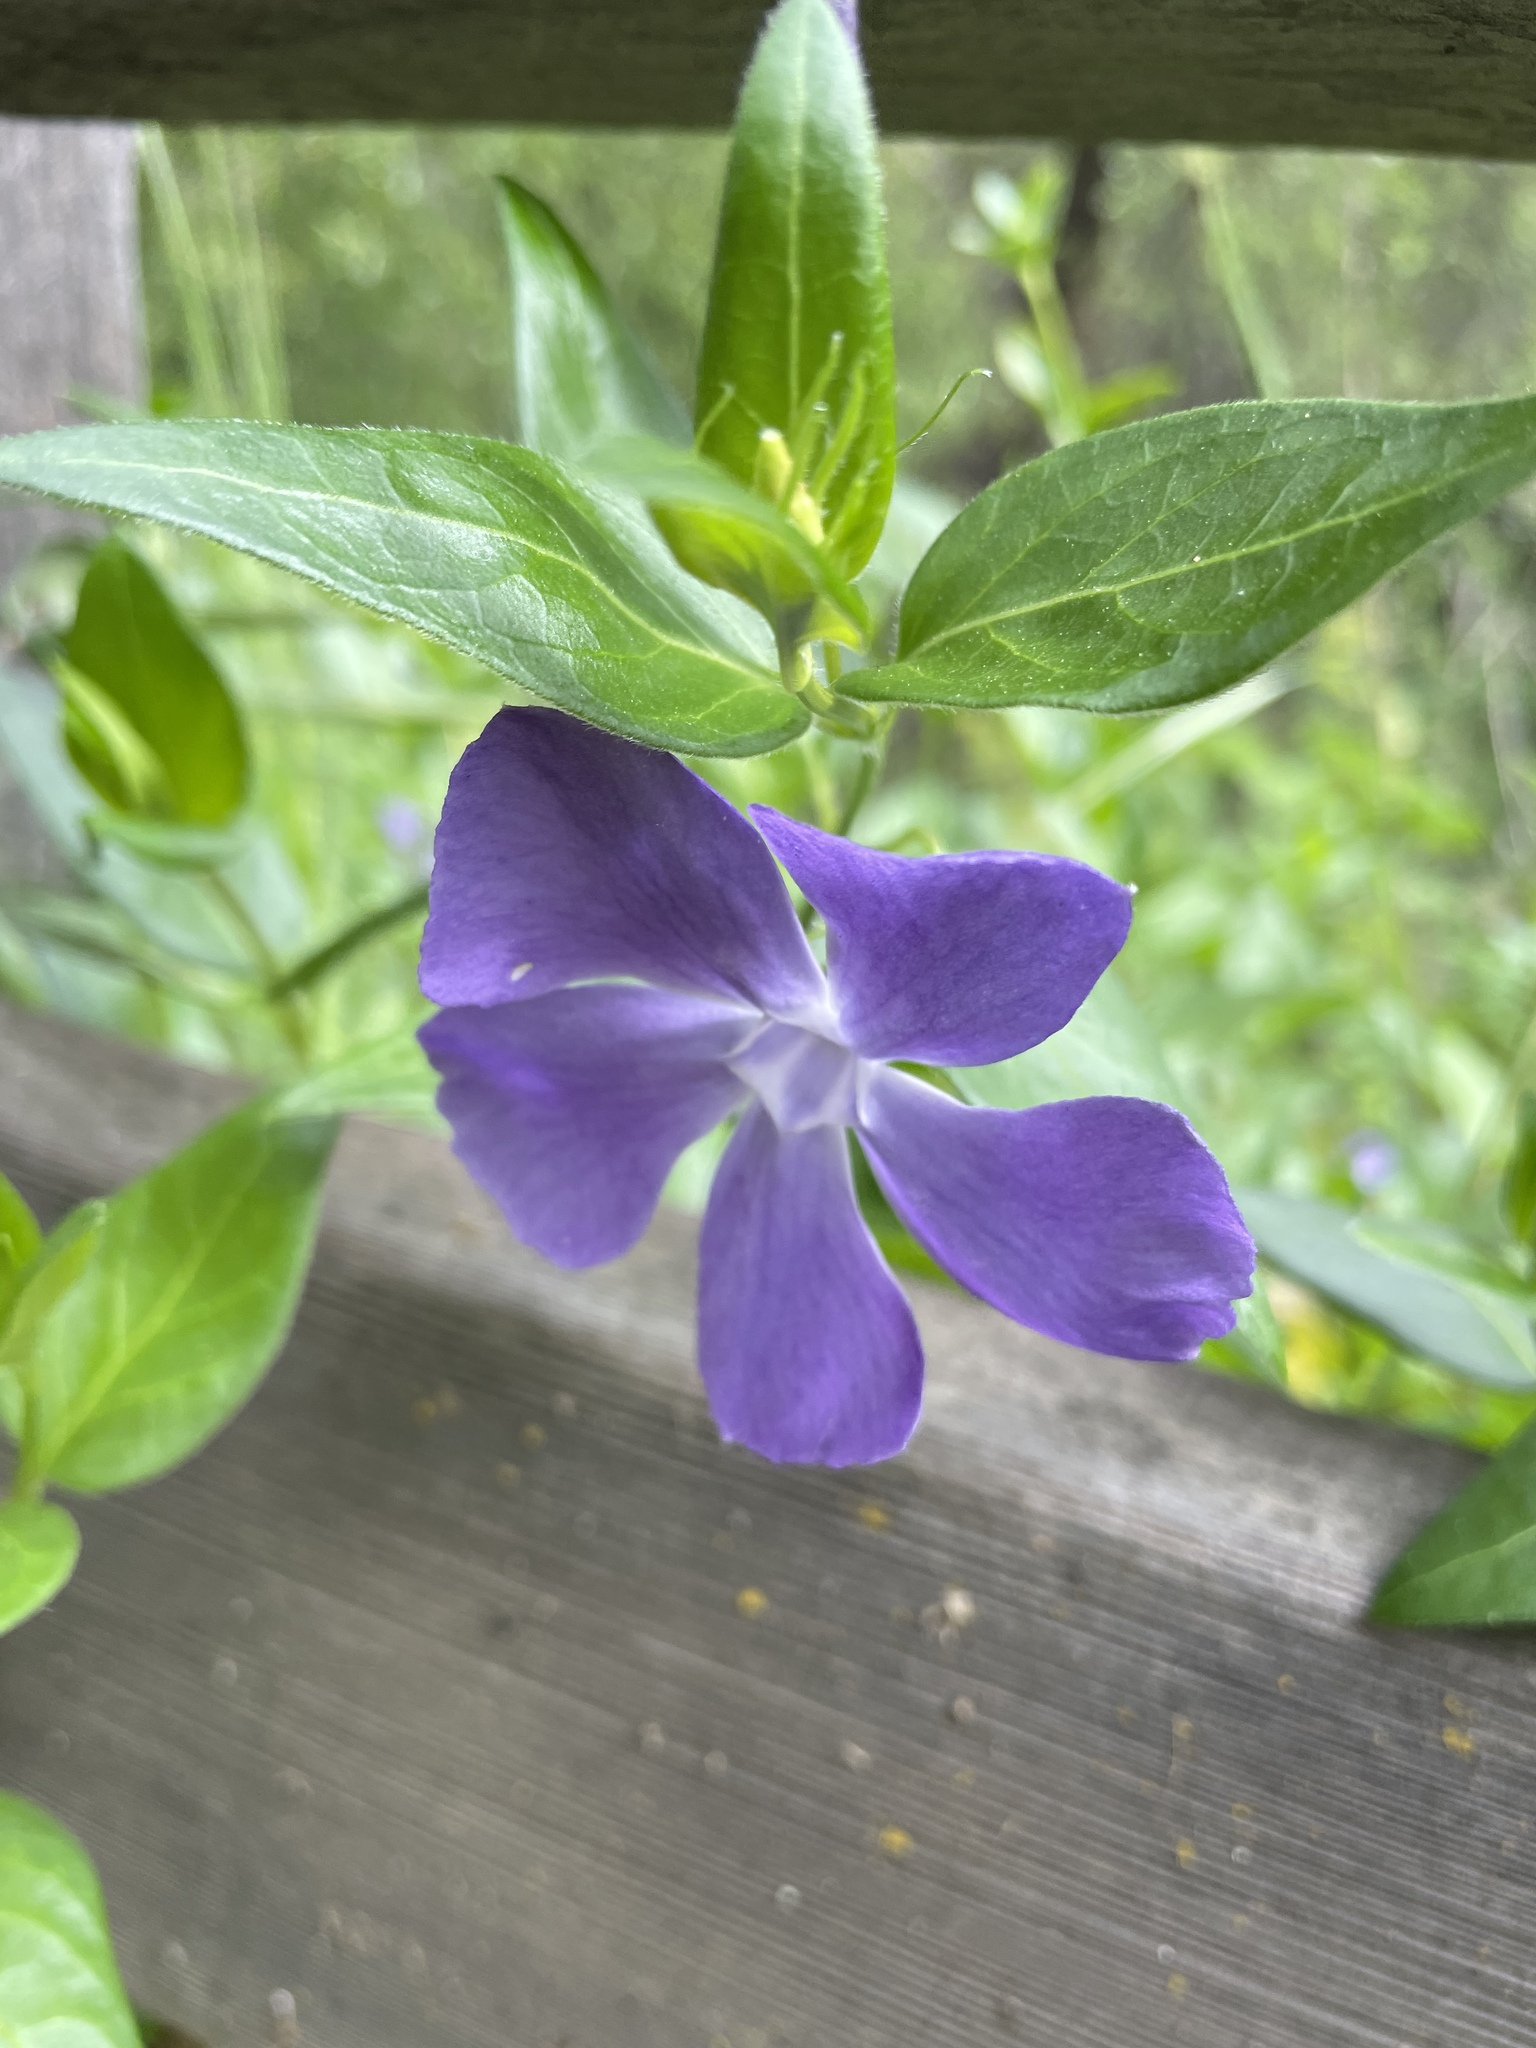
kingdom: Plantae
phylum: Tracheophyta
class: Magnoliopsida
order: Gentianales
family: Apocynaceae
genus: Vinca
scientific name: Vinca major
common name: Greater periwinkle
